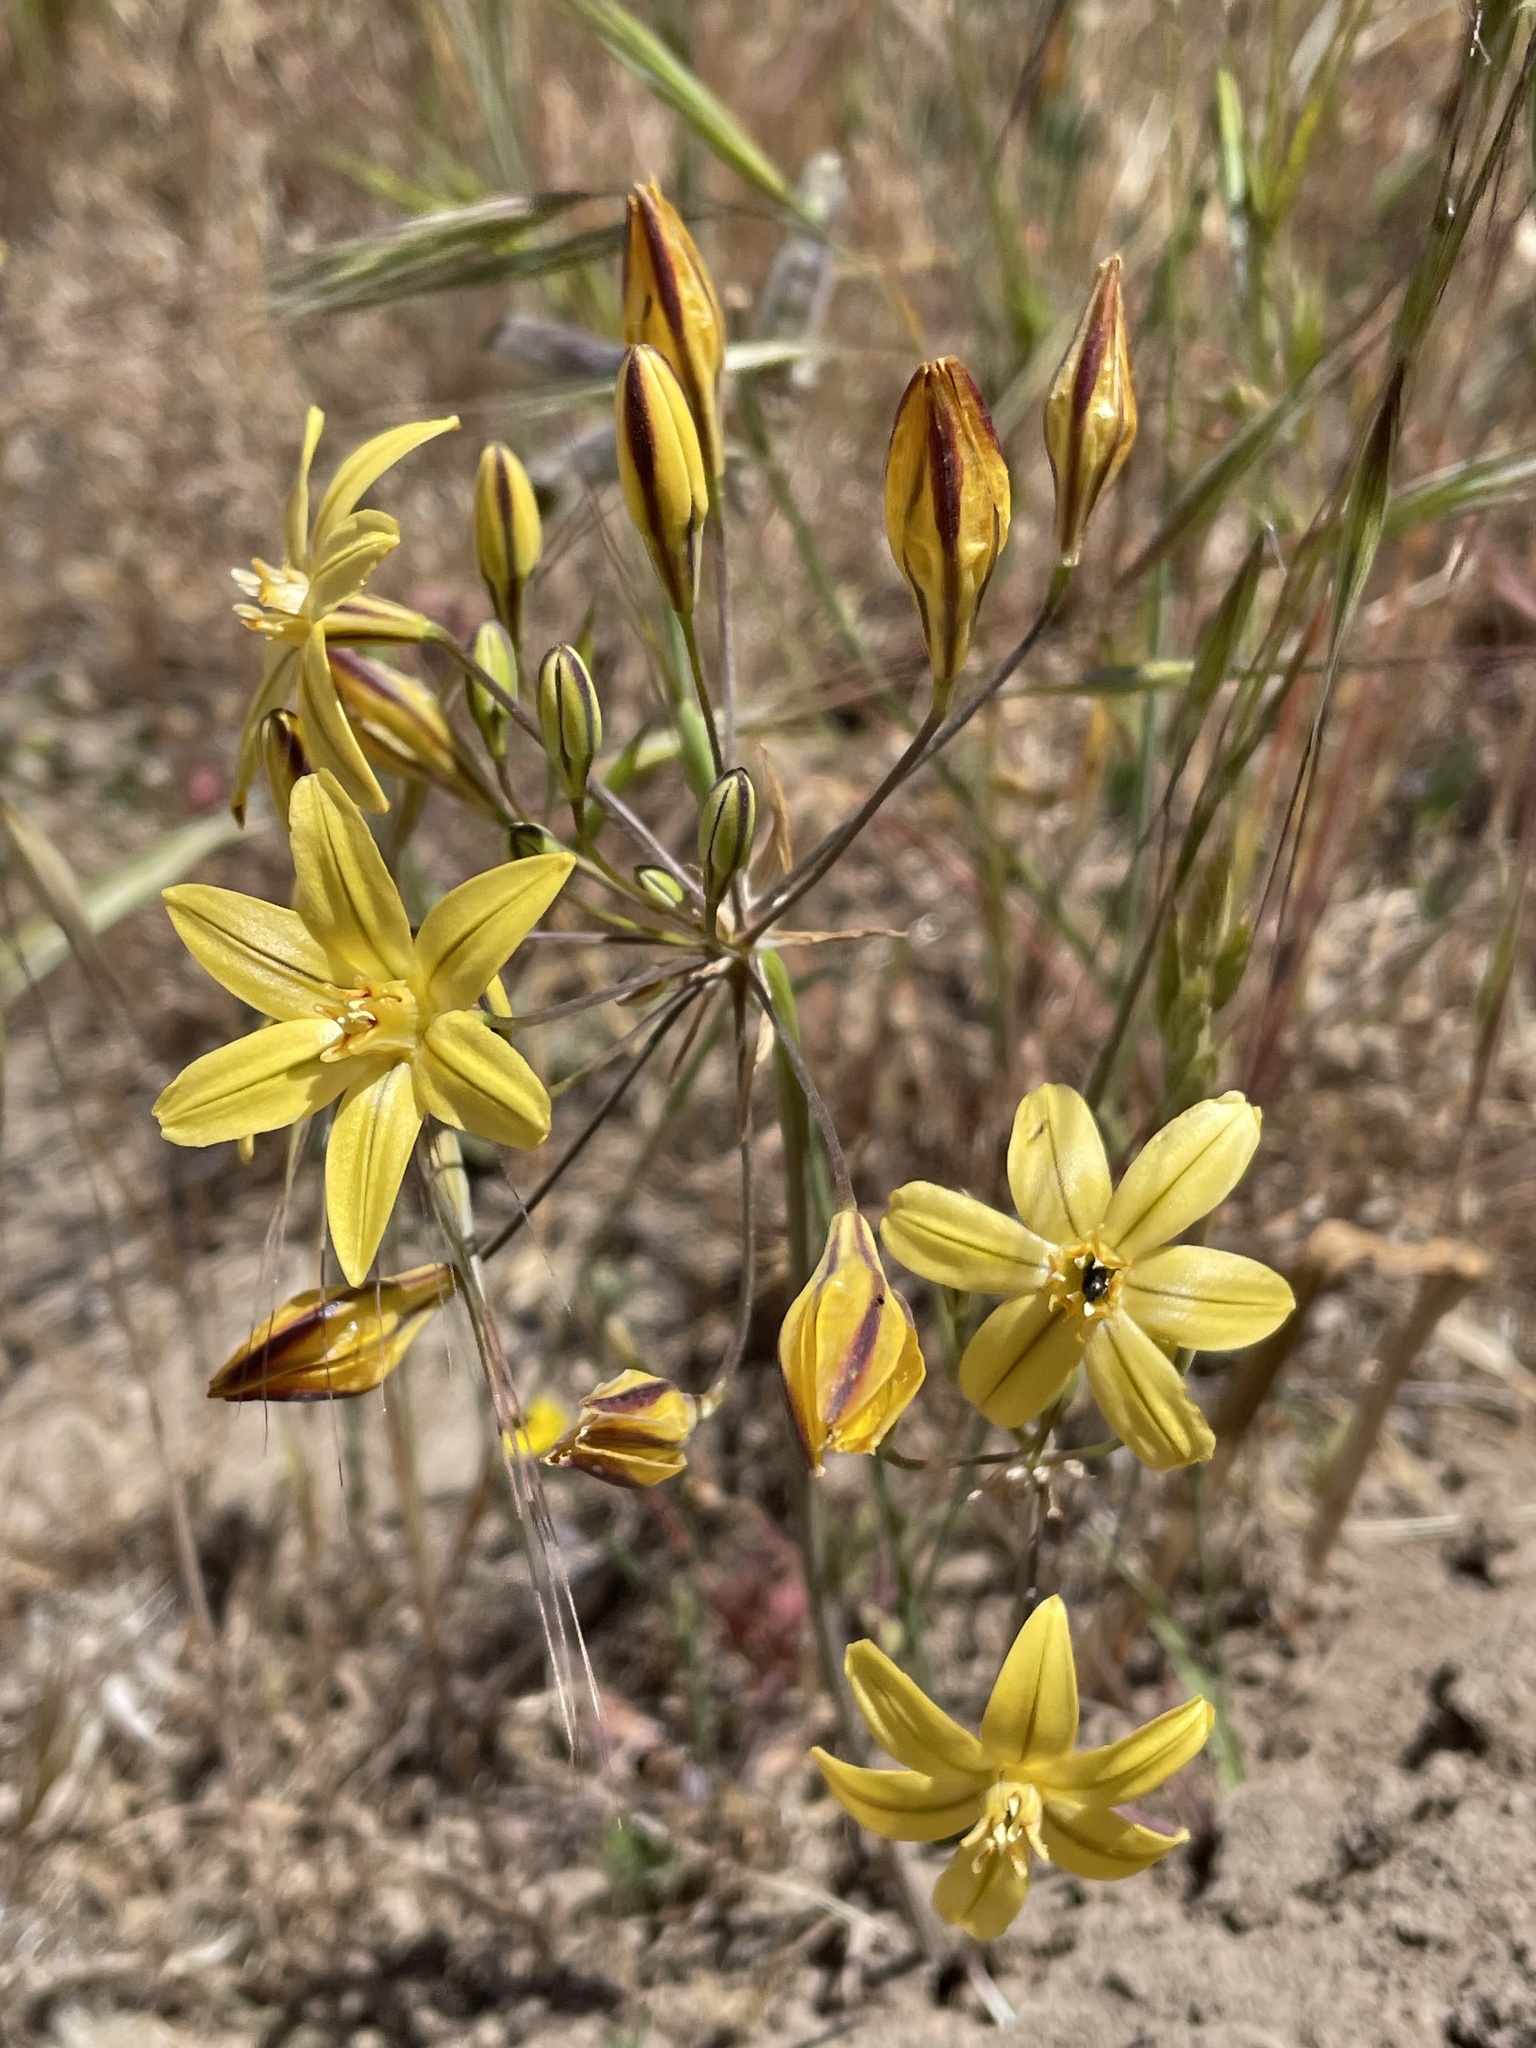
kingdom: Plantae
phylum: Tracheophyta
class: Liliopsida
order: Asparagales
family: Asparagaceae
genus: Triteleia
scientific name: Triteleia ixioides
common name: Yellow-brodiaea
